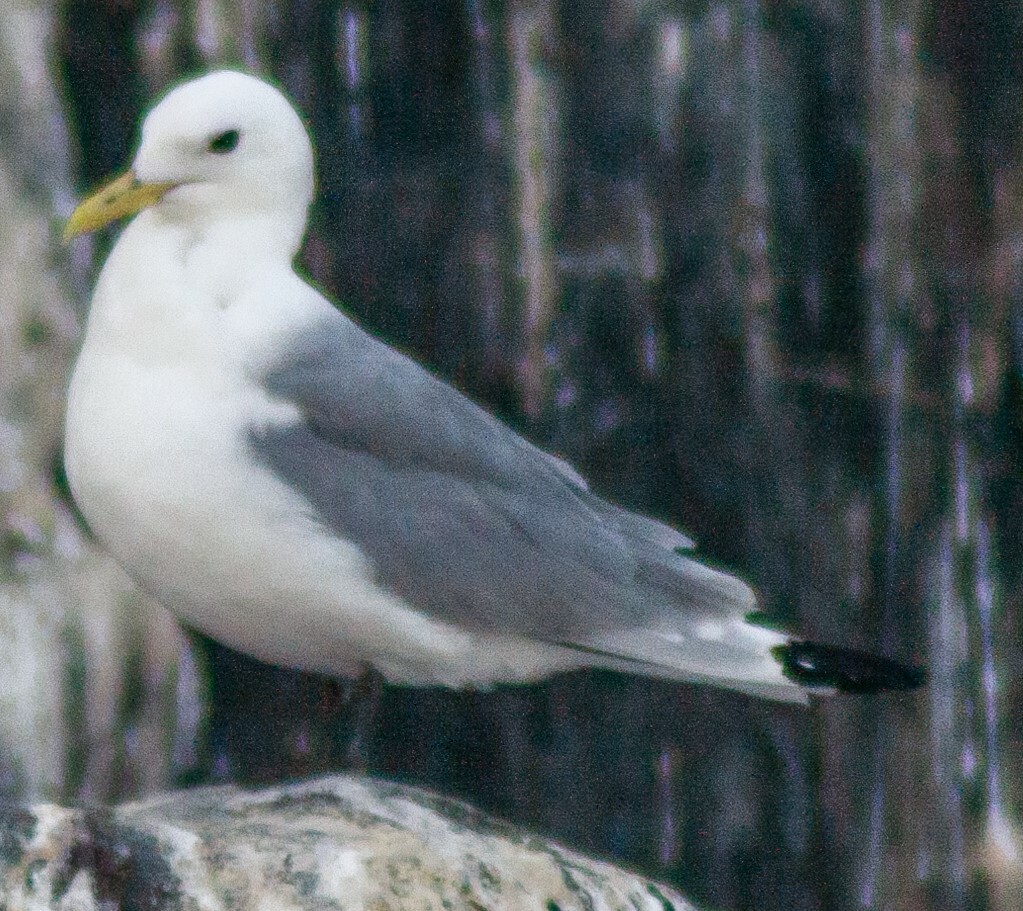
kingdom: Animalia
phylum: Chordata
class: Aves
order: Charadriiformes
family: Laridae
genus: Rissa
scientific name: Rissa tridactyla
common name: Black-legged kittiwake
